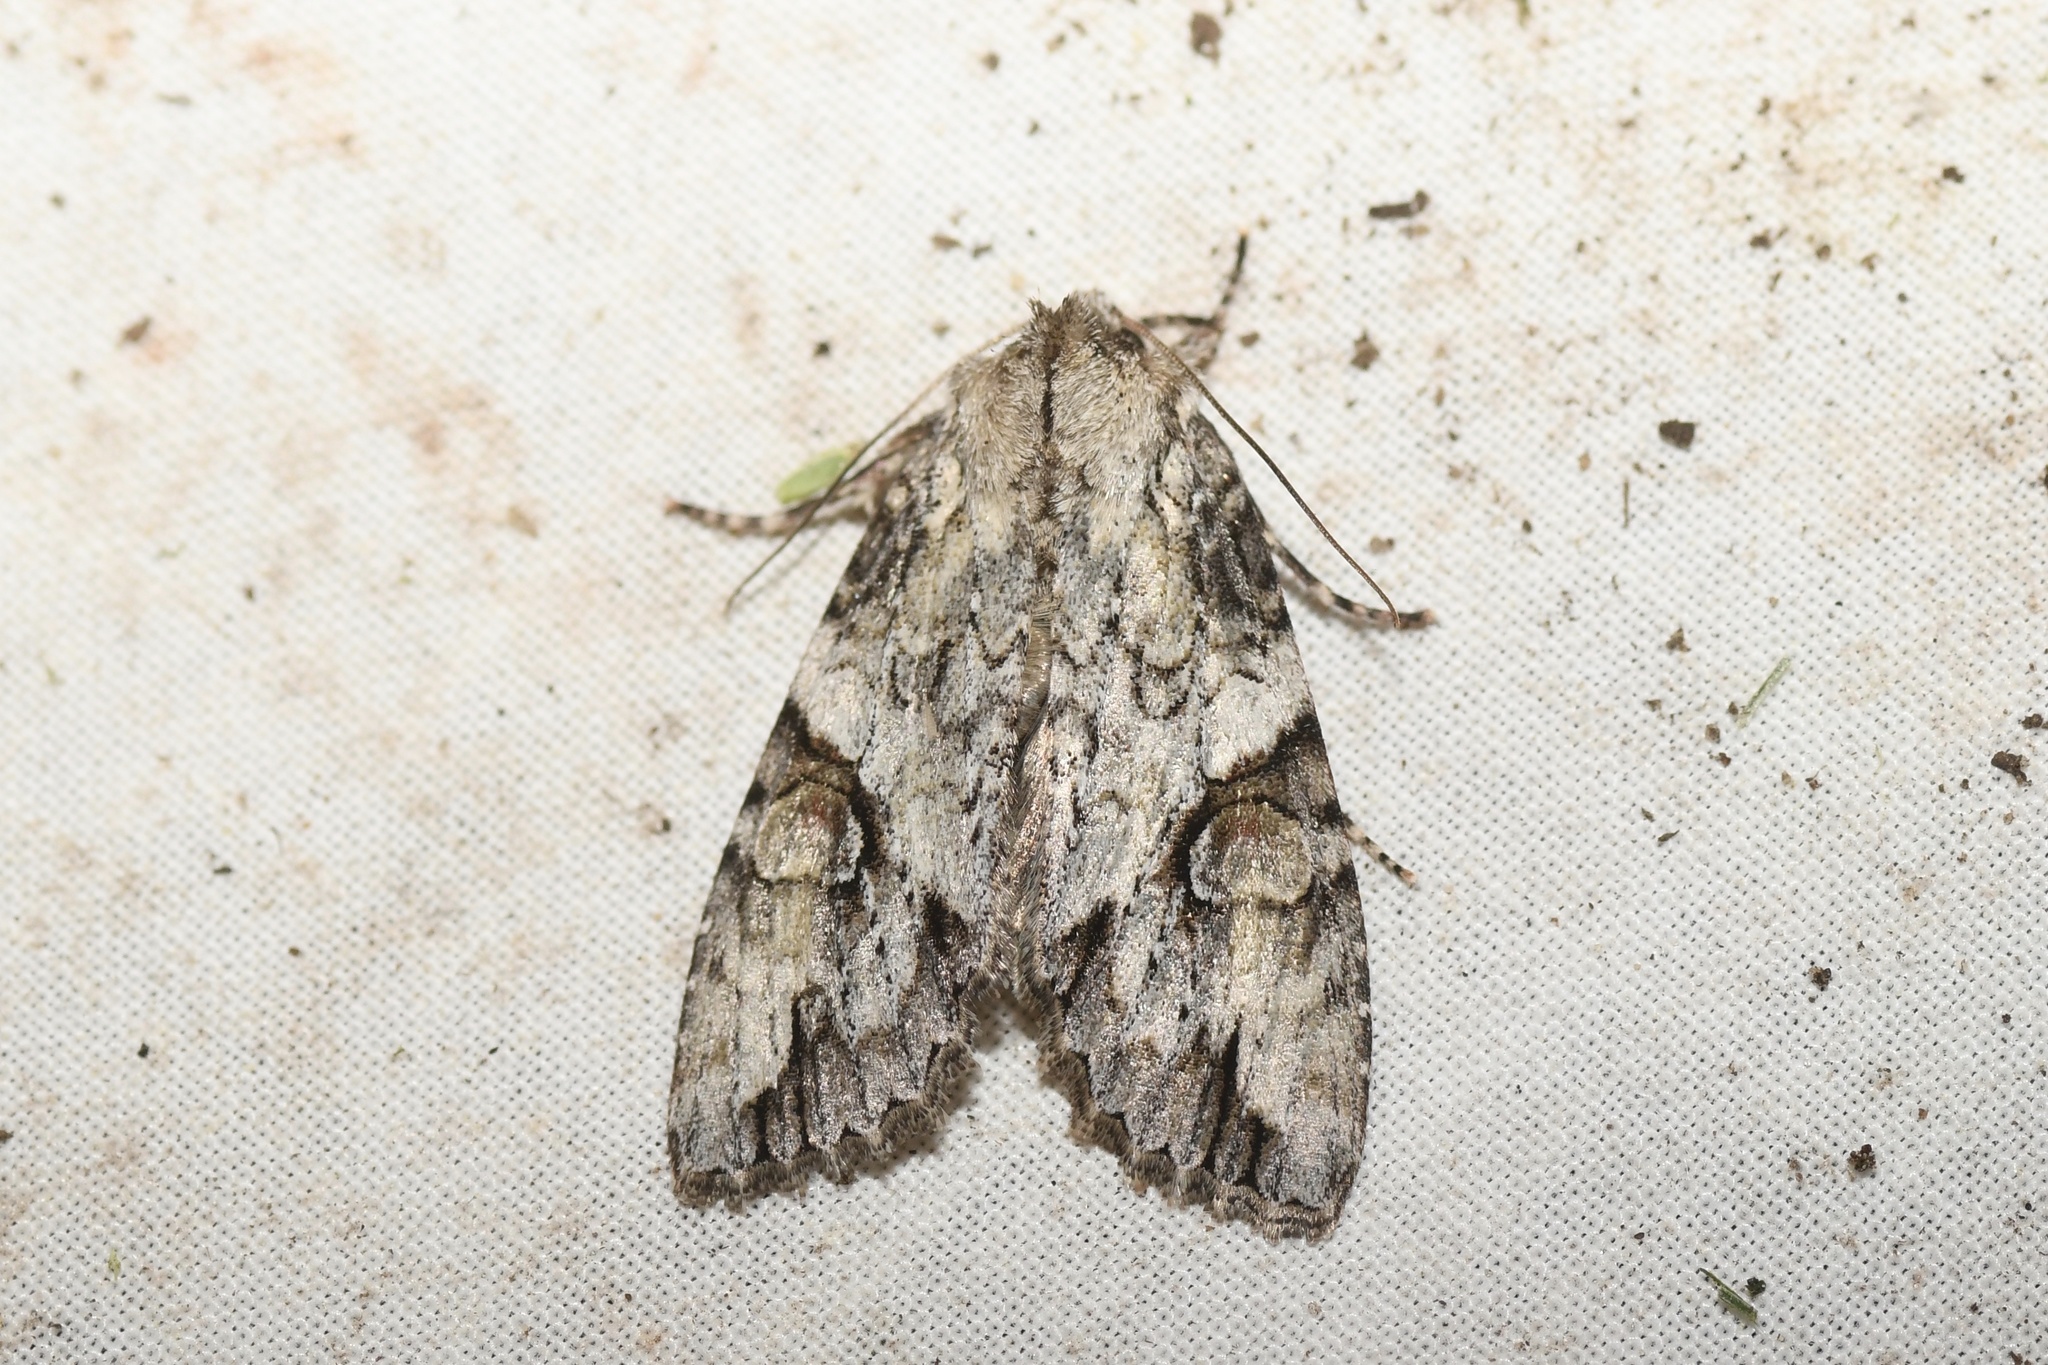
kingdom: Animalia
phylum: Arthropoda
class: Insecta
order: Lepidoptera
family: Noctuidae
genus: Achatia
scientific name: Achatia latex
